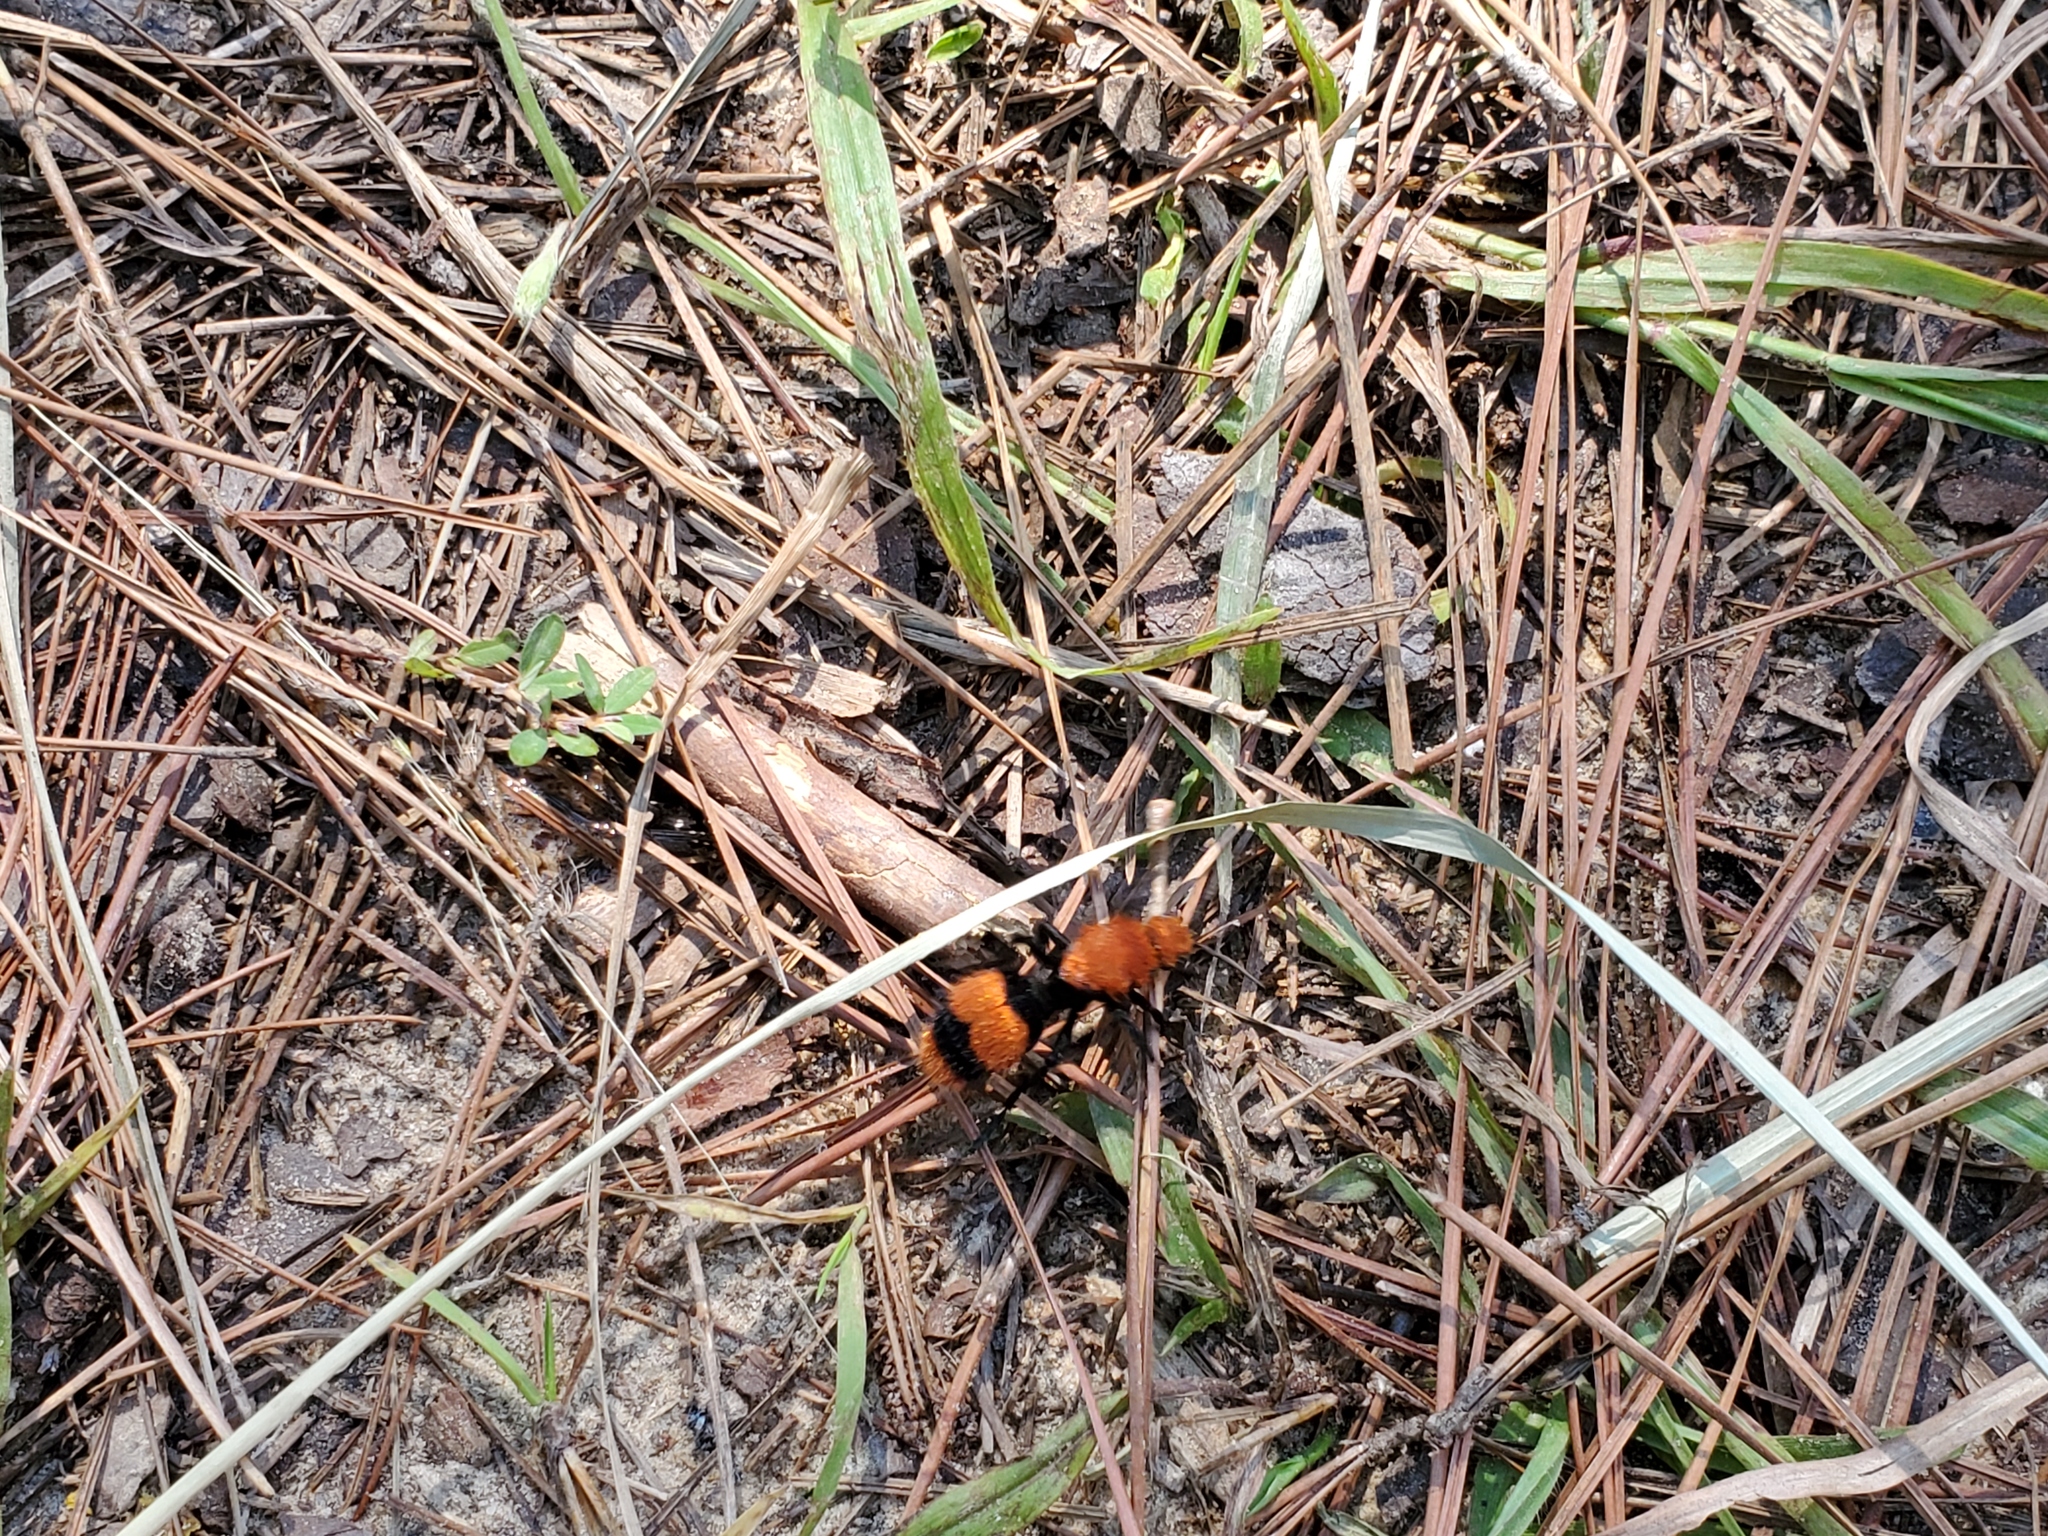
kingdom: Animalia
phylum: Arthropoda
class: Insecta
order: Hymenoptera
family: Mutillidae
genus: Dasymutilla
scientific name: Dasymutilla occidentalis
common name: Common eastern velvet ant
